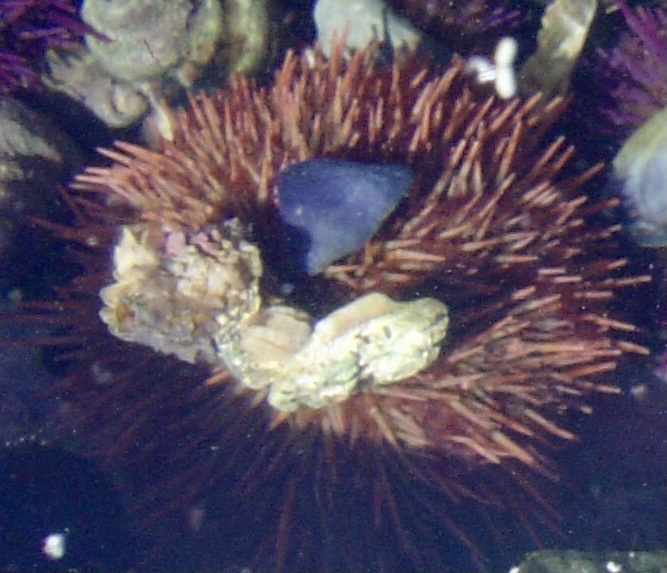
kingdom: Animalia
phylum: Echinodermata
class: Echinoidea
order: Camarodonta
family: Parechinidae
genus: Parechinus
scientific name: Parechinus angulosus
